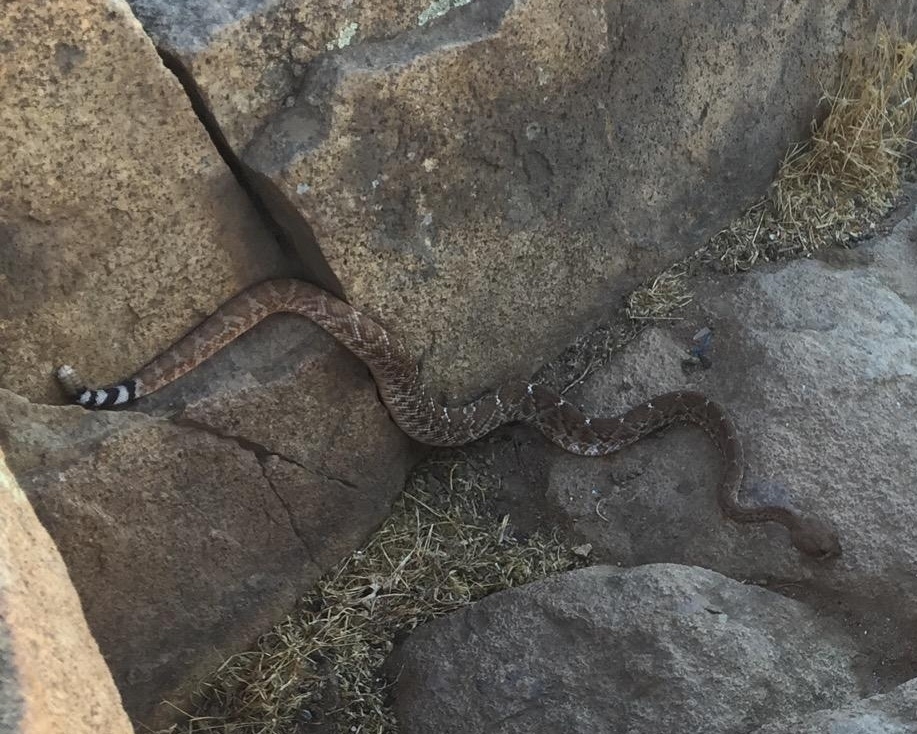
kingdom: Animalia
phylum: Chordata
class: Squamata
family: Viperidae
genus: Crotalus
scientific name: Crotalus ruber
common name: Red diamond rattlesnake
